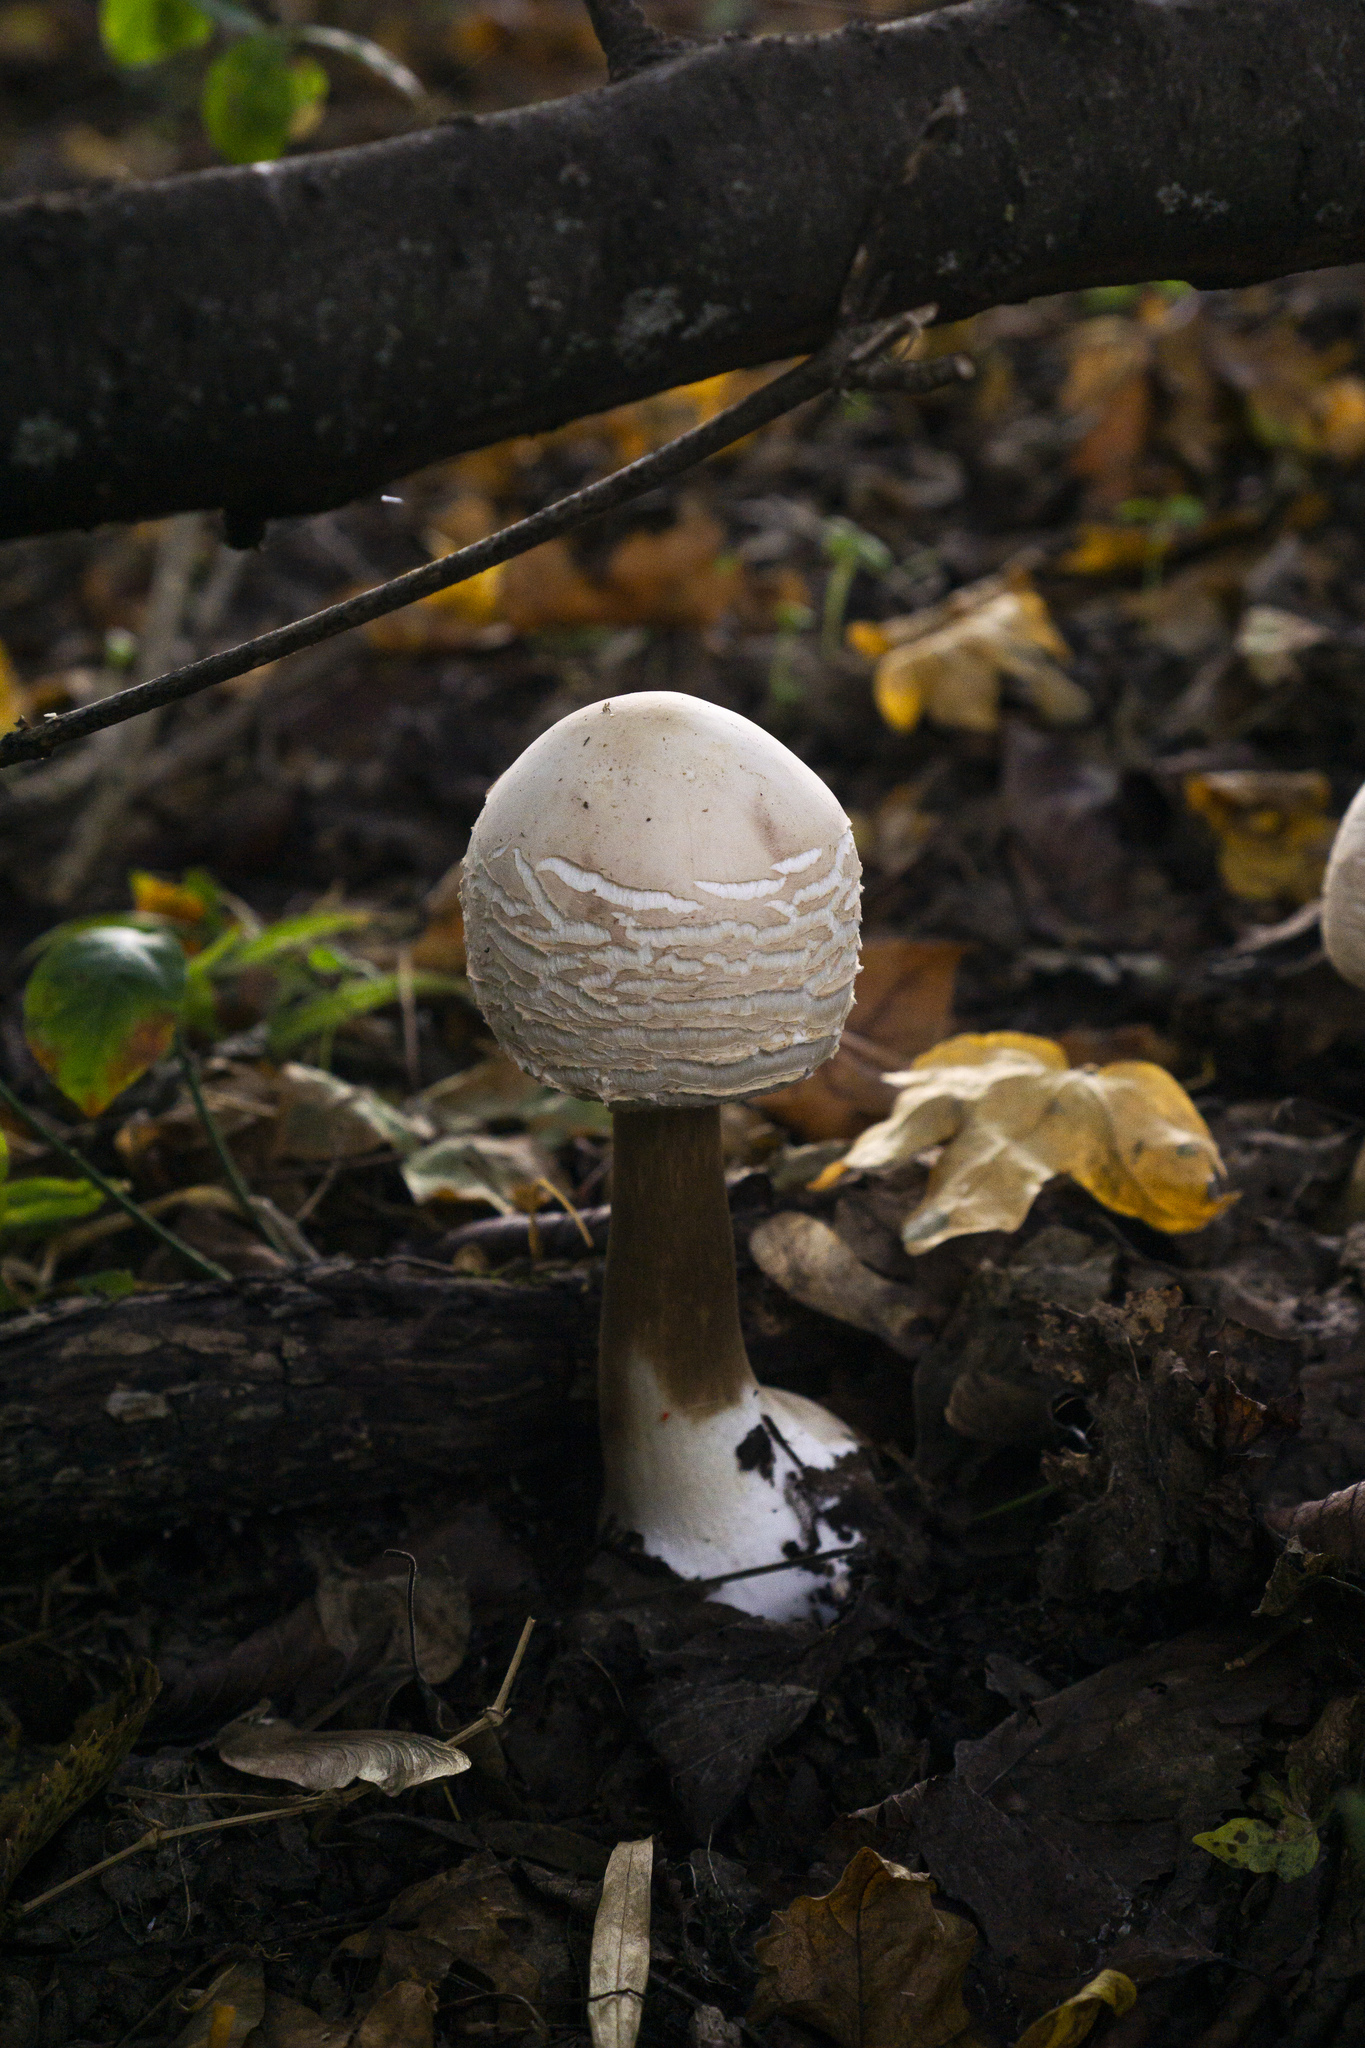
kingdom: Fungi
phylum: Basidiomycota
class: Agaricomycetes
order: Agaricales
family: Agaricaceae
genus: Chlorophyllum
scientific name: Chlorophyllum rhacodes
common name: Shaggy parasol
